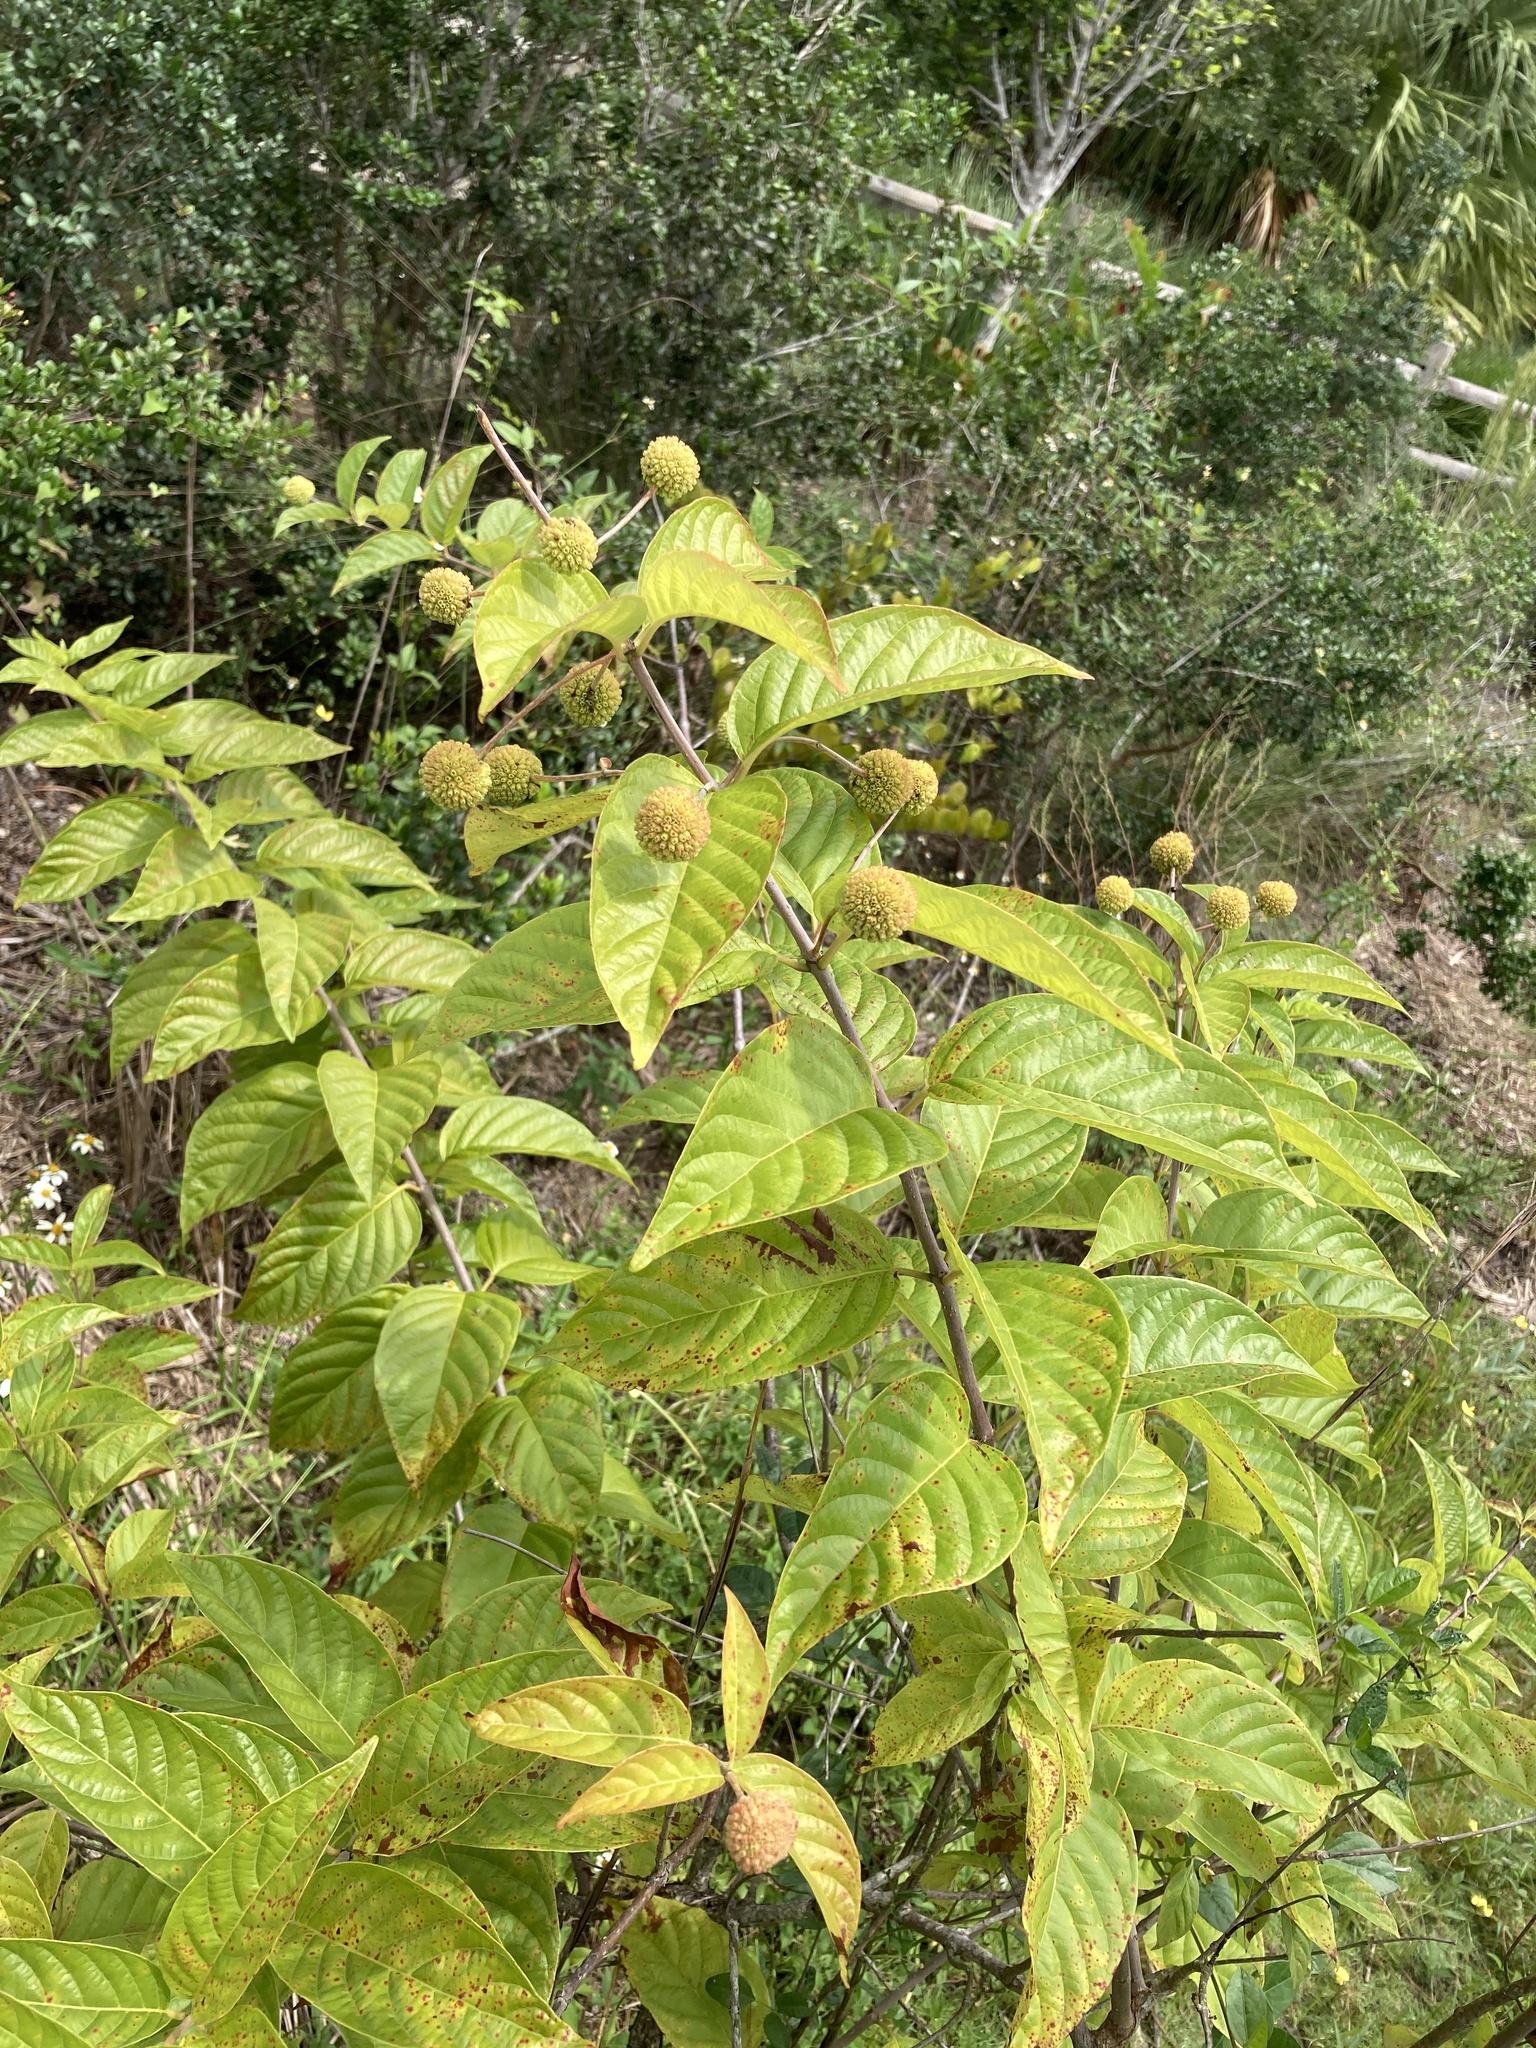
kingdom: Plantae
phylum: Tracheophyta
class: Magnoliopsida
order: Gentianales
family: Rubiaceae
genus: Cephalanthus
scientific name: Cephalanthus occidentalis
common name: Button-willow
